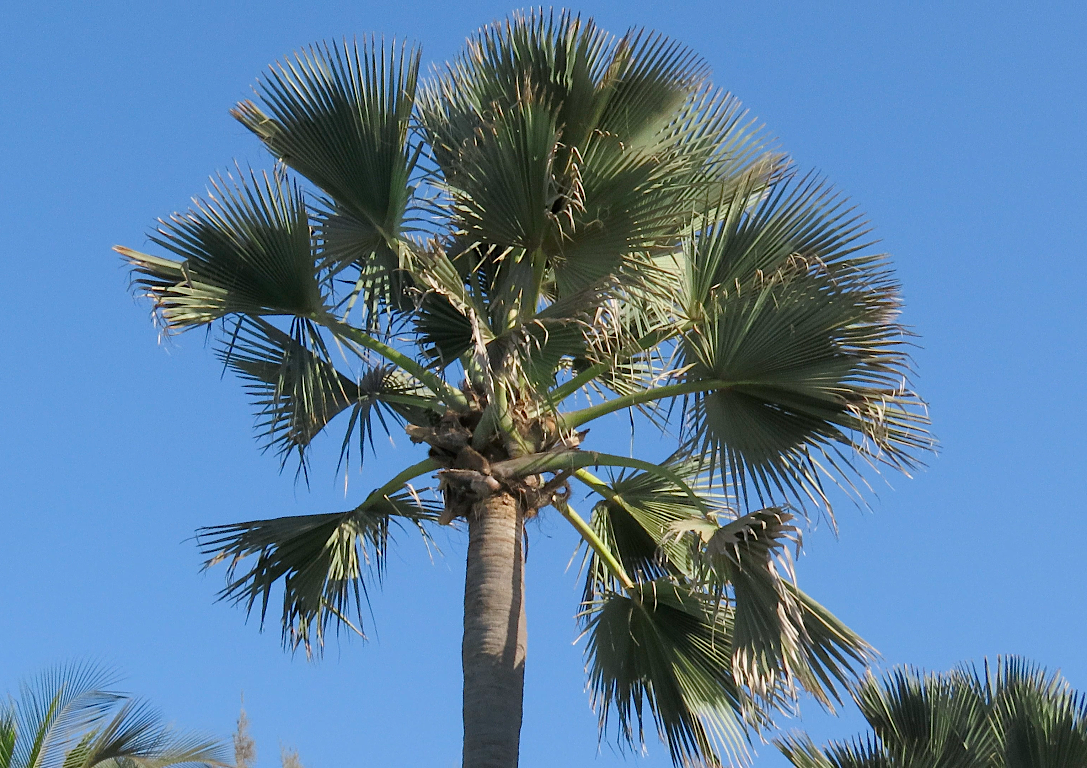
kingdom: Plantae
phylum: Tracheophyta
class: Liliopsida
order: Arecales
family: Arecaceae
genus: Borassus
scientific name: Borassus akeassii
